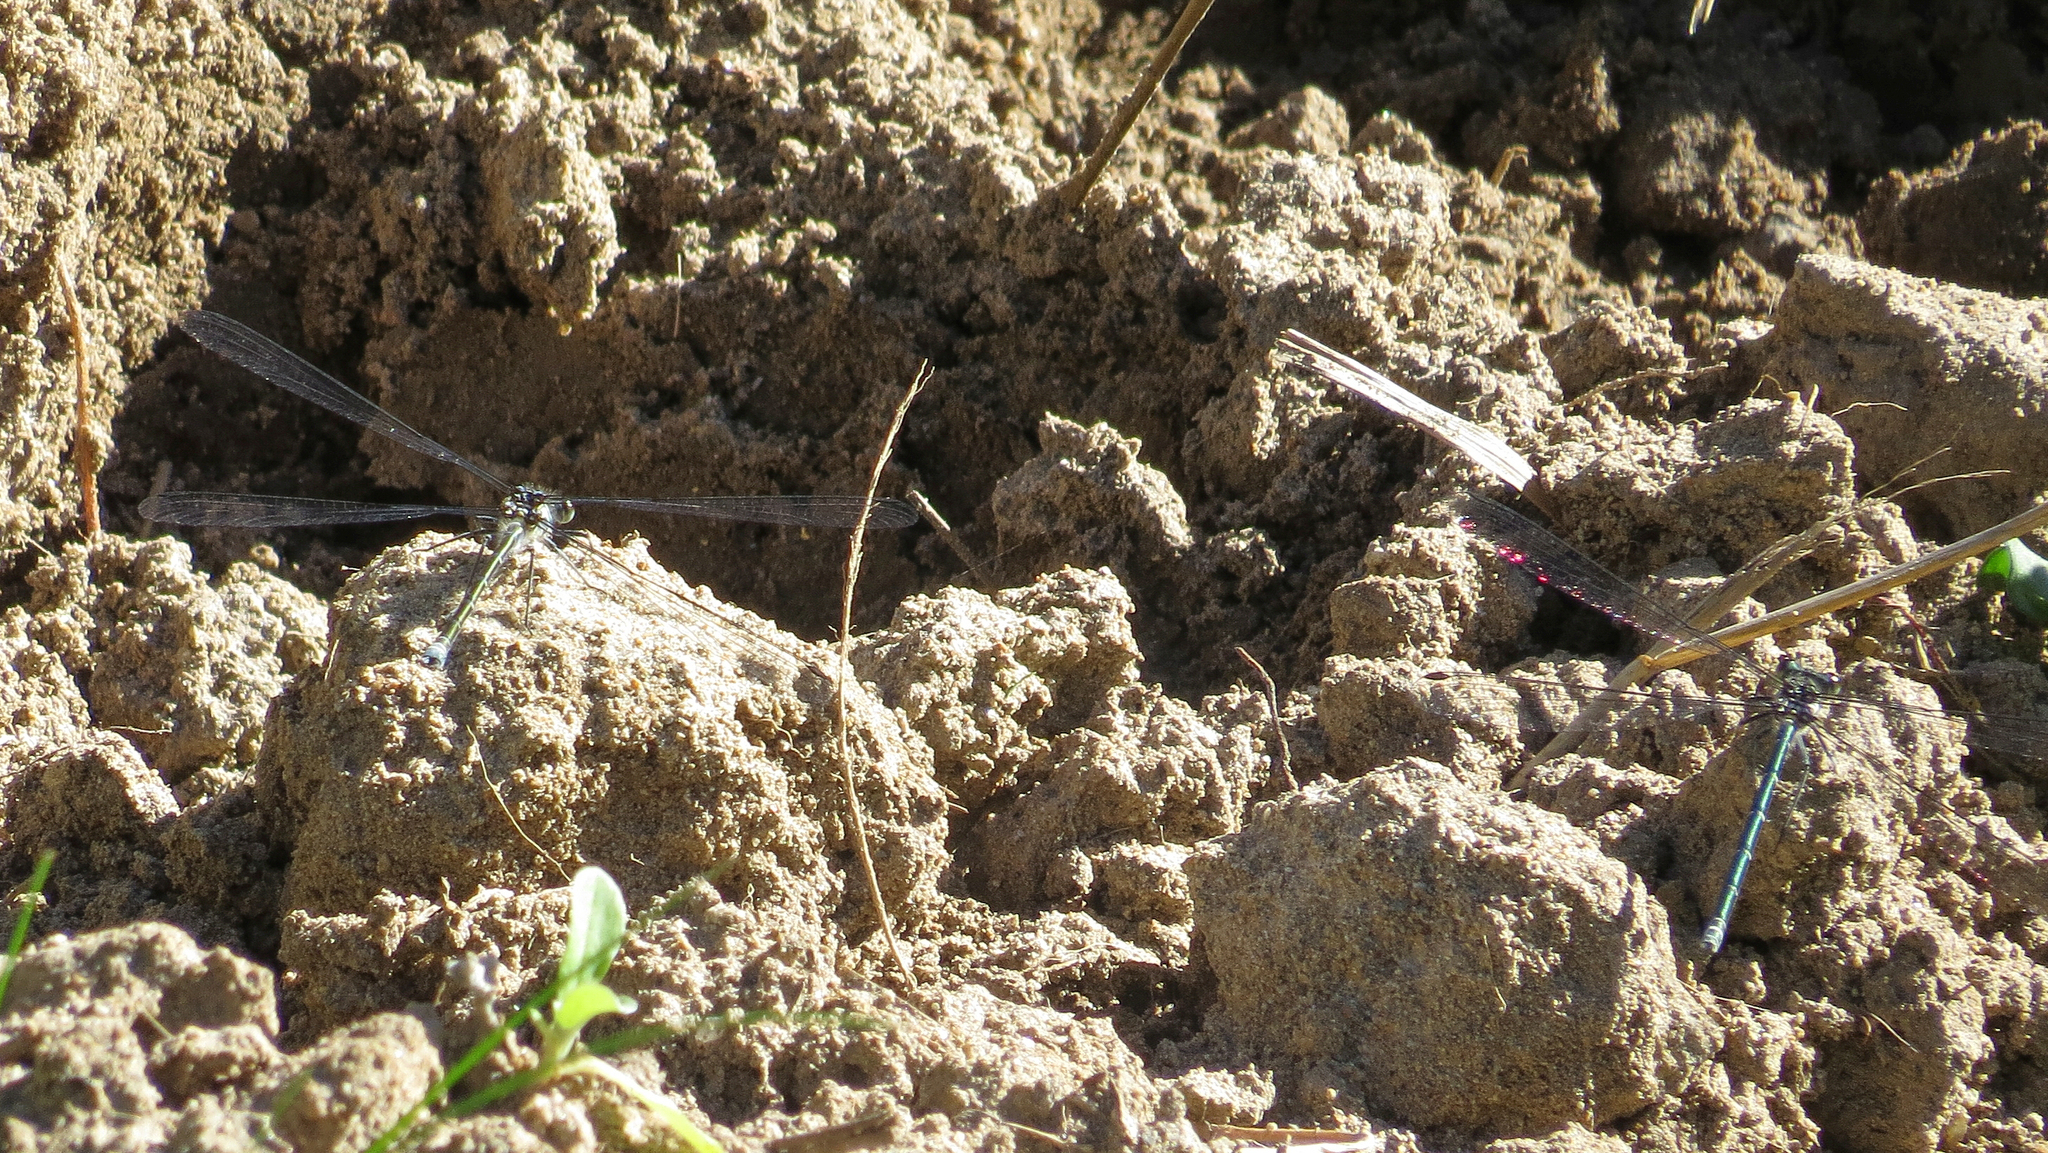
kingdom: Animalia
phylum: Arthropoda
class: Insecta
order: Odonata
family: Argiolestidae
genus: Austroargiolestes
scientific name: Austroargiolestes icteromelas
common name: Common flatwing
